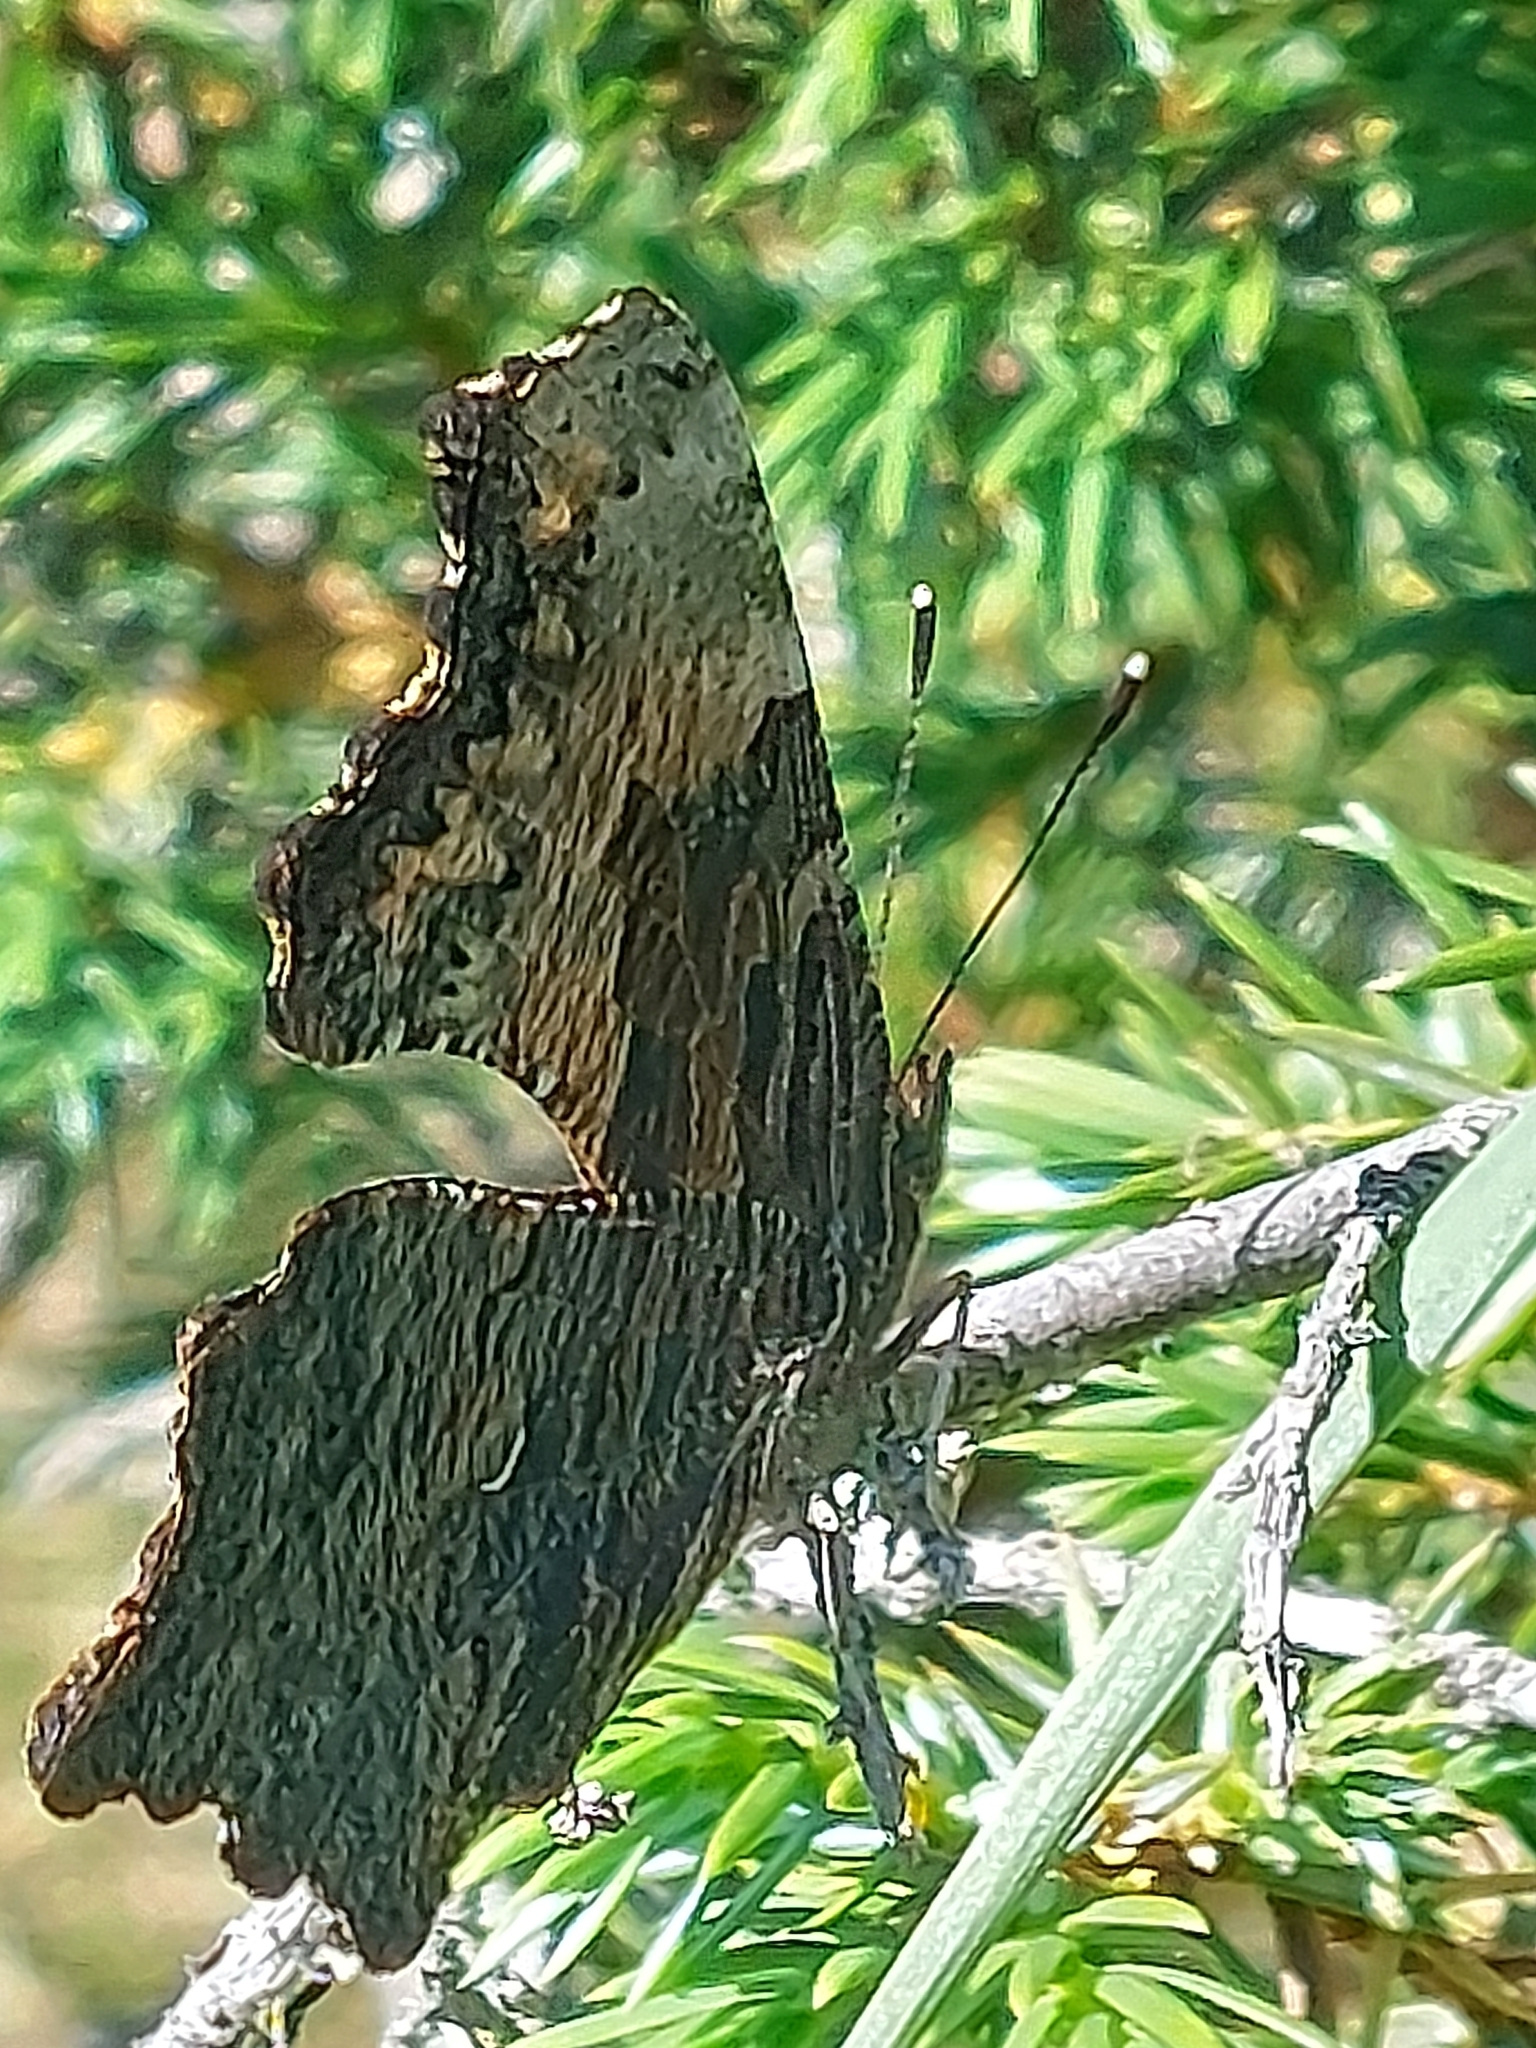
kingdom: Animalia
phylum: Arthropoda
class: Insecta
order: Lepidoptera
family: Nymphalidae
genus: Polygonia
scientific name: Polygonia progne
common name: Gray comma
